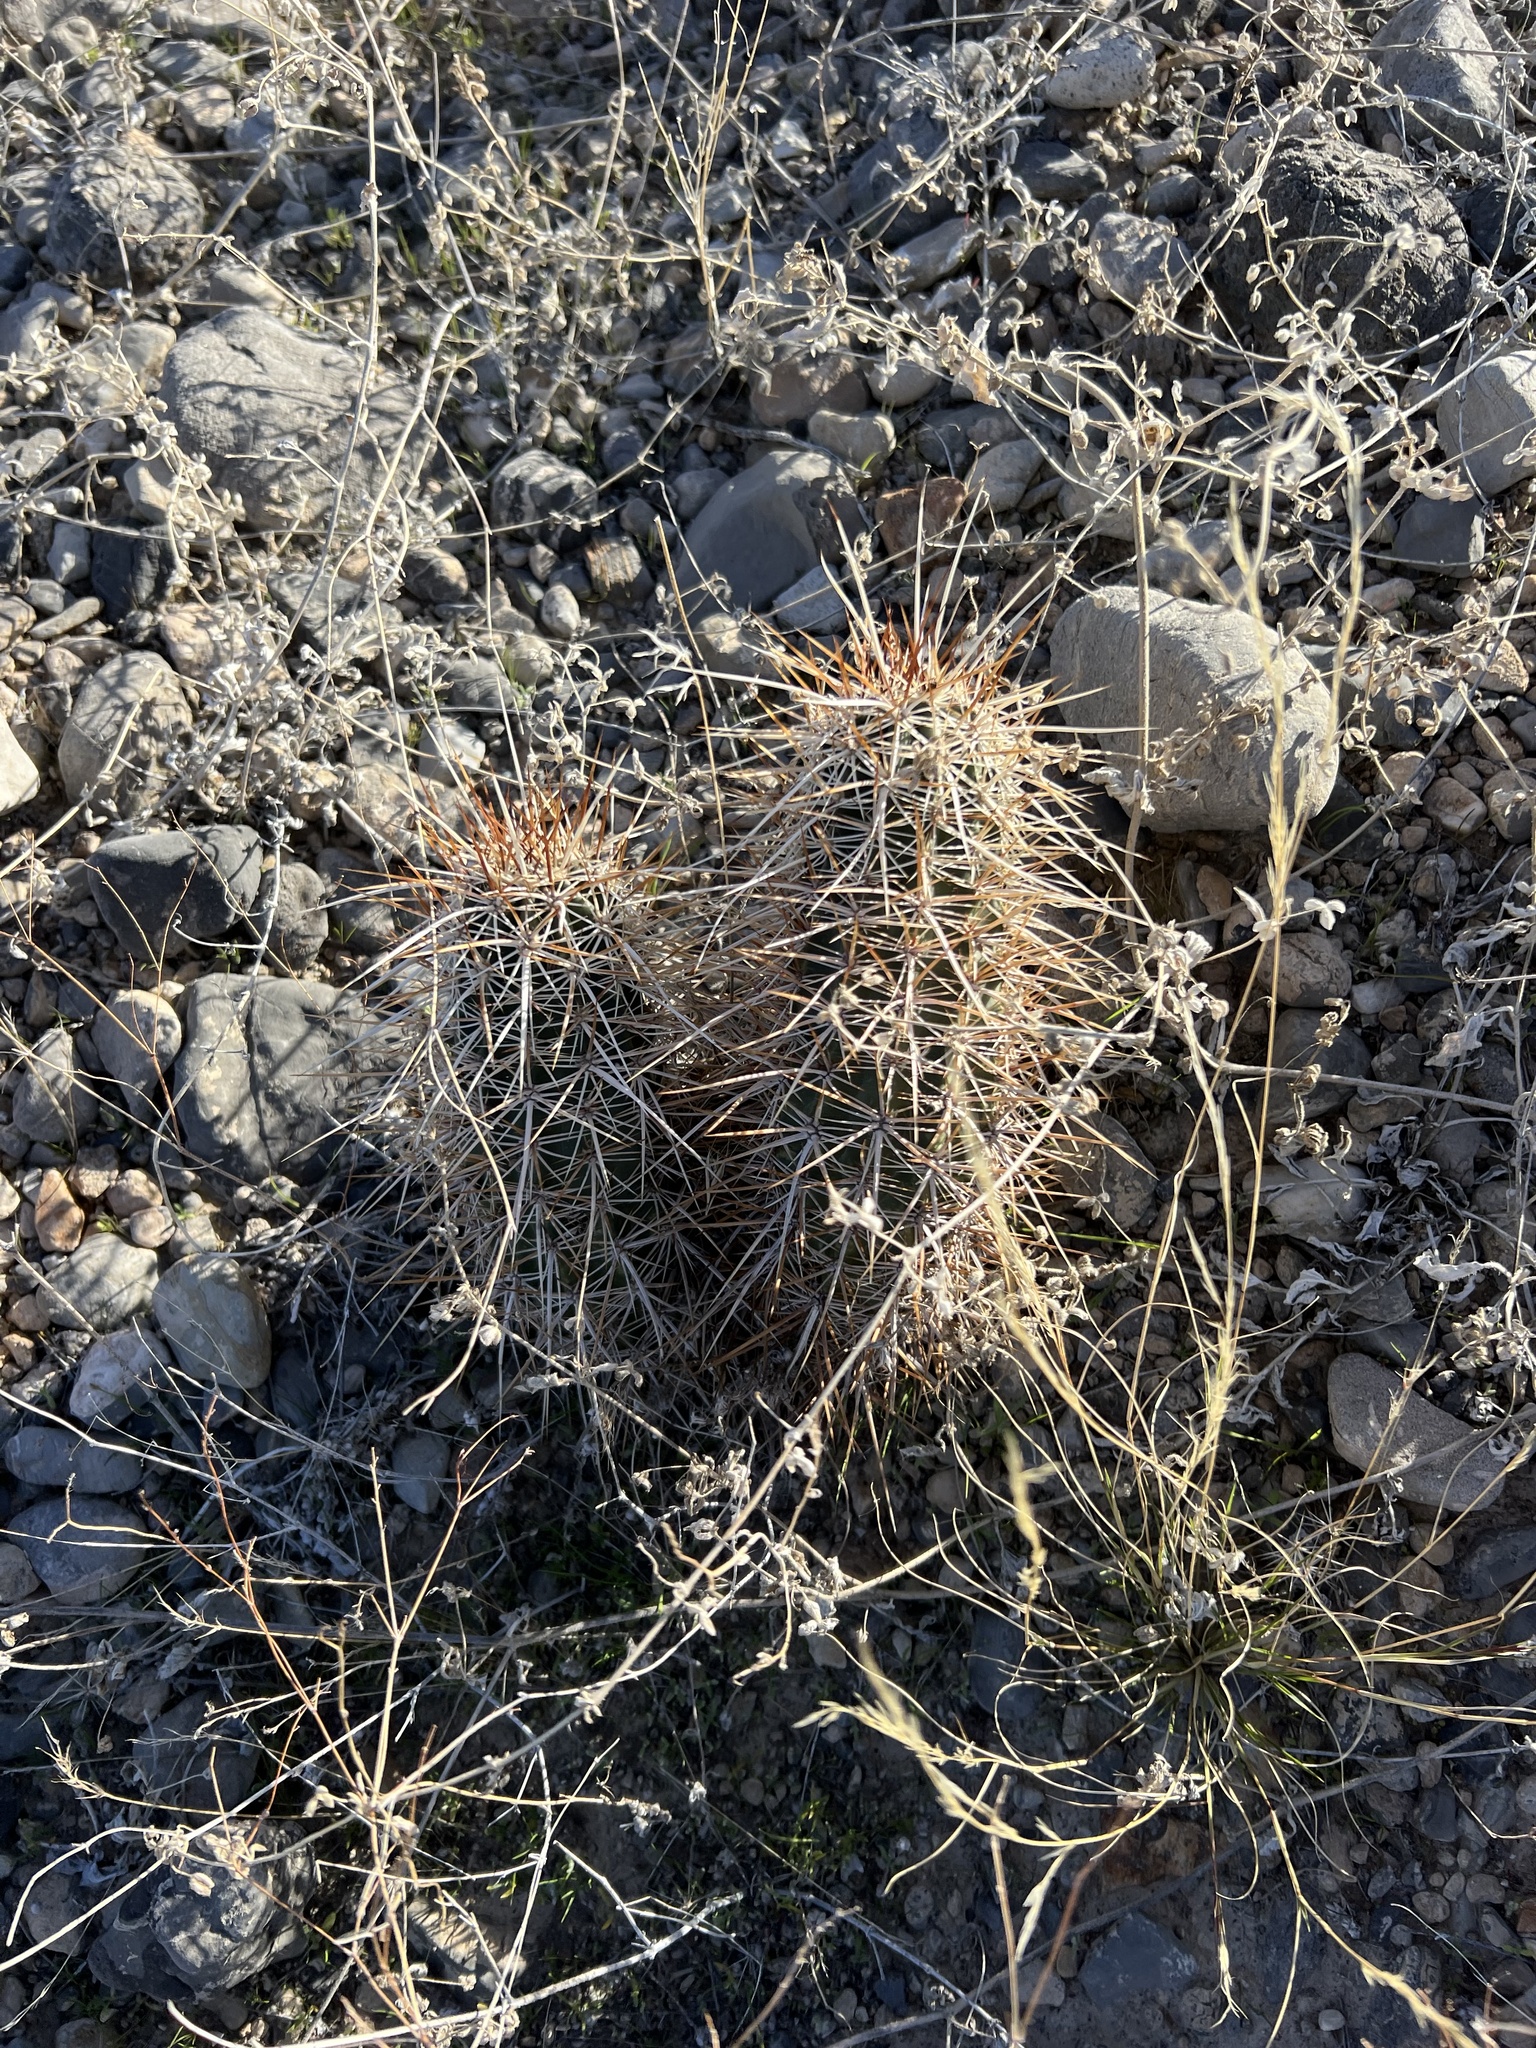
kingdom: Plantae
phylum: Tracheophyta
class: Magnoliopsida
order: Caryophyllales
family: Cactaceae
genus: Echinocereus
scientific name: Echinocereus engelmannii
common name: Engelmann's hedgehog cactus
